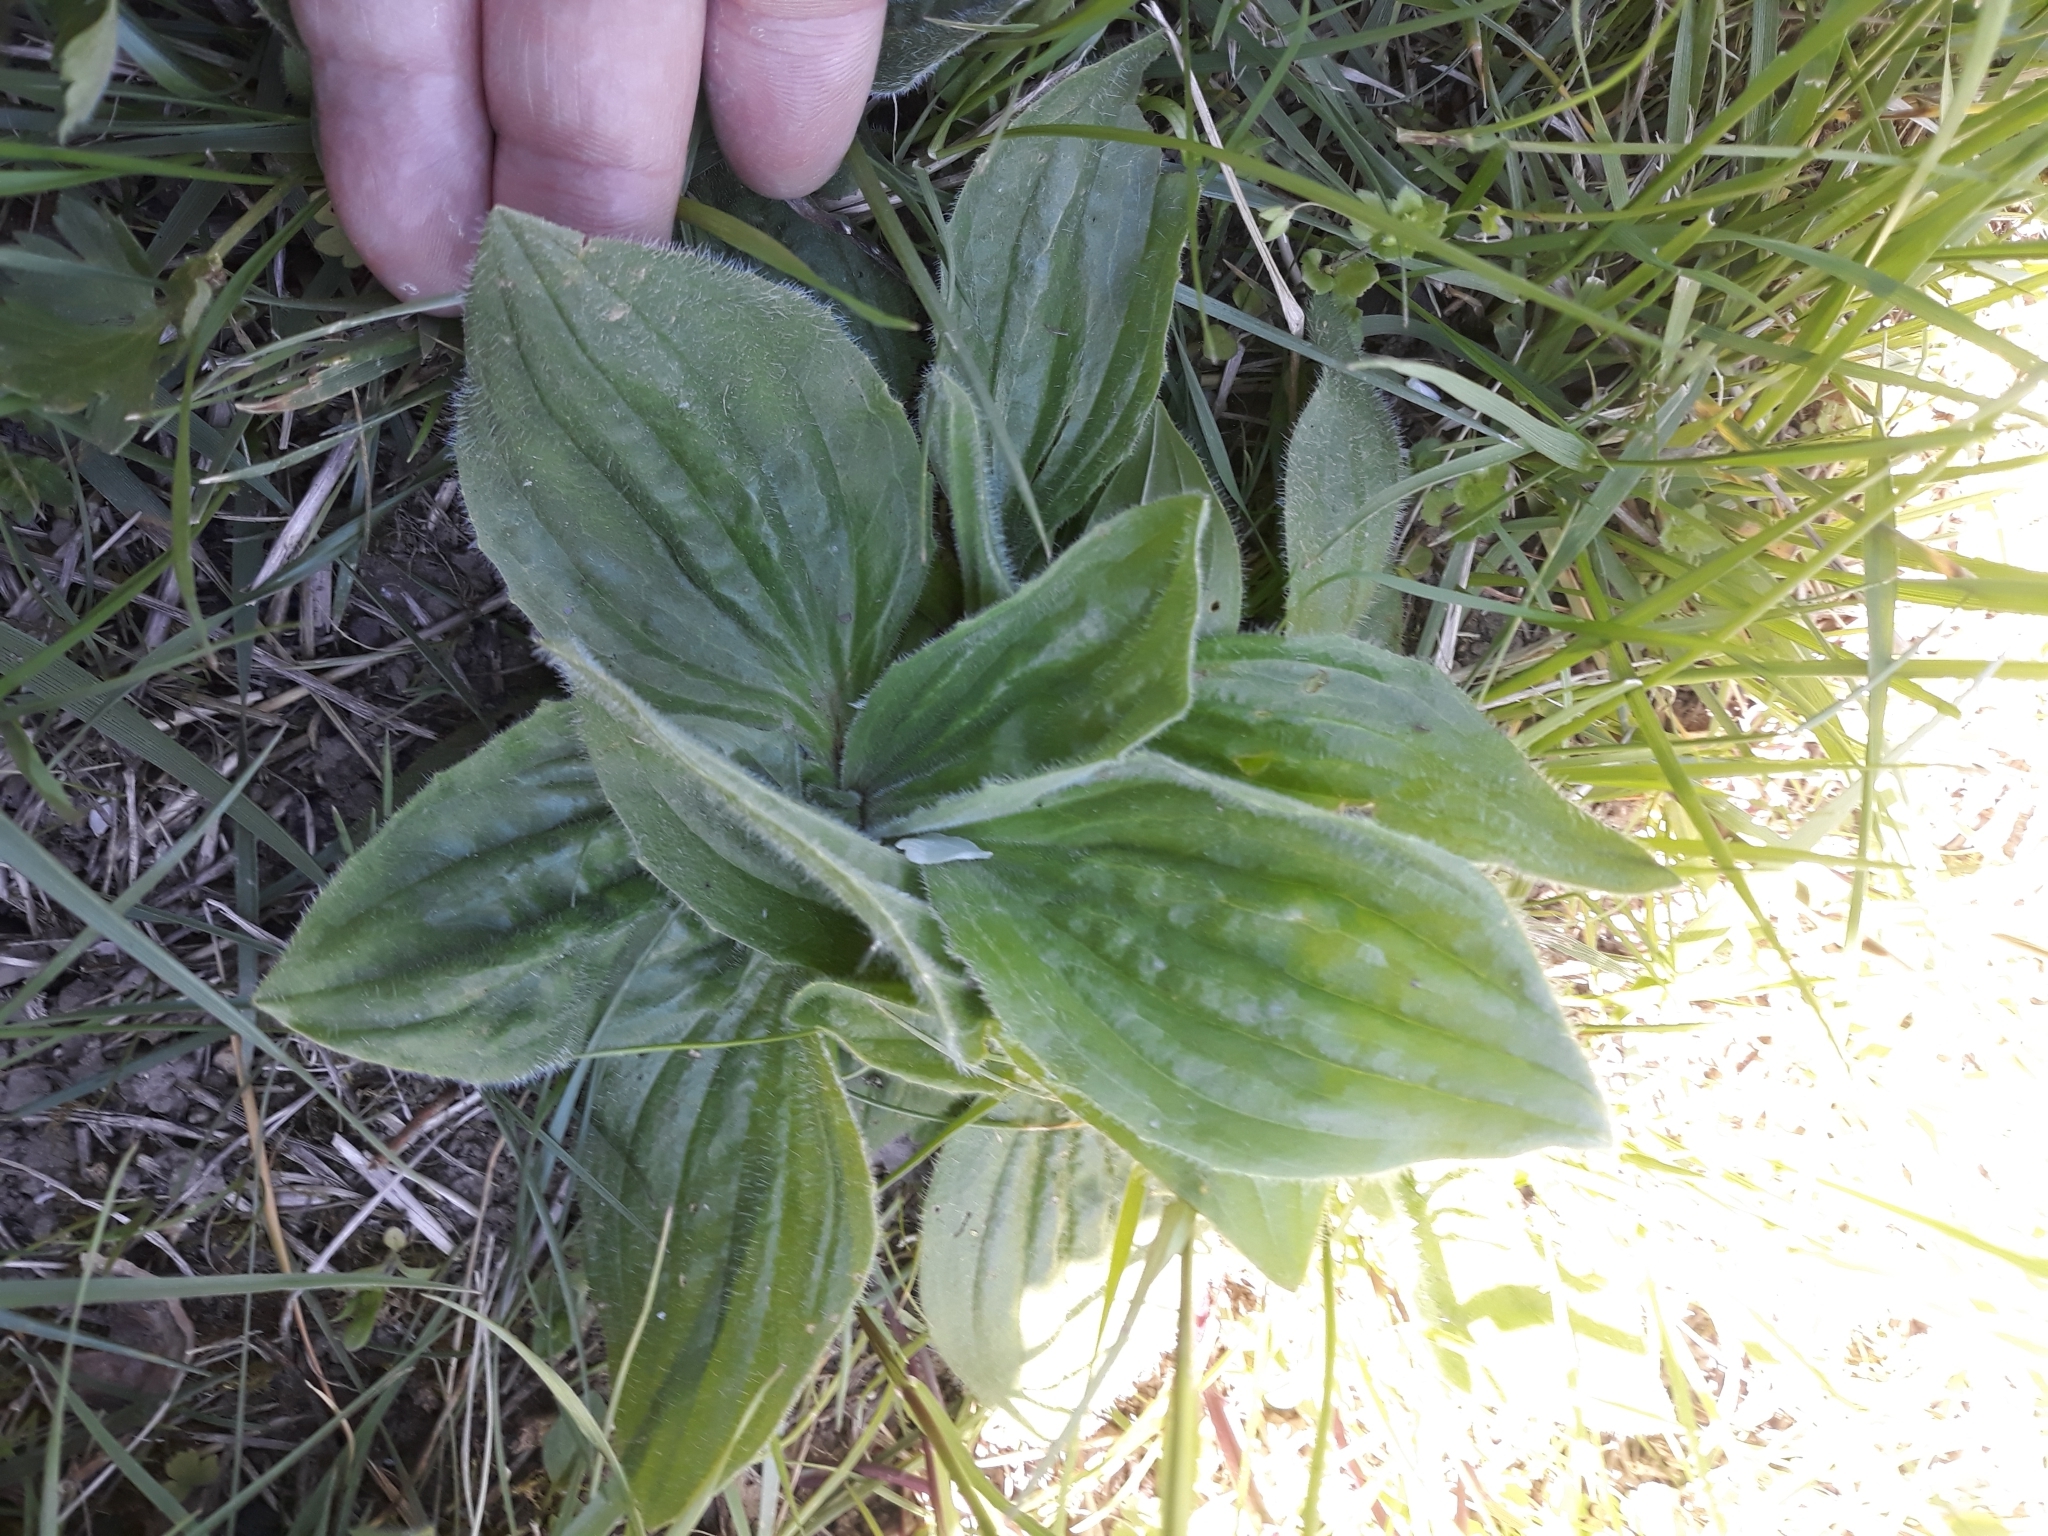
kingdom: Plantae
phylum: Tracheophyta
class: Magnoliopsida
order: Lamiales
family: Plantaginaceae
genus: Plantago
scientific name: Plantago media
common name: Hoary plantain
